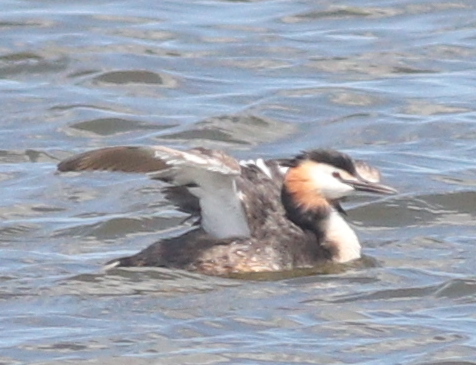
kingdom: Animalia
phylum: Chordata
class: Aves
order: Podicipediformes
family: Podicipedidae
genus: Podiceps
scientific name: Podiceps cristatus
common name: Great crested grebe
